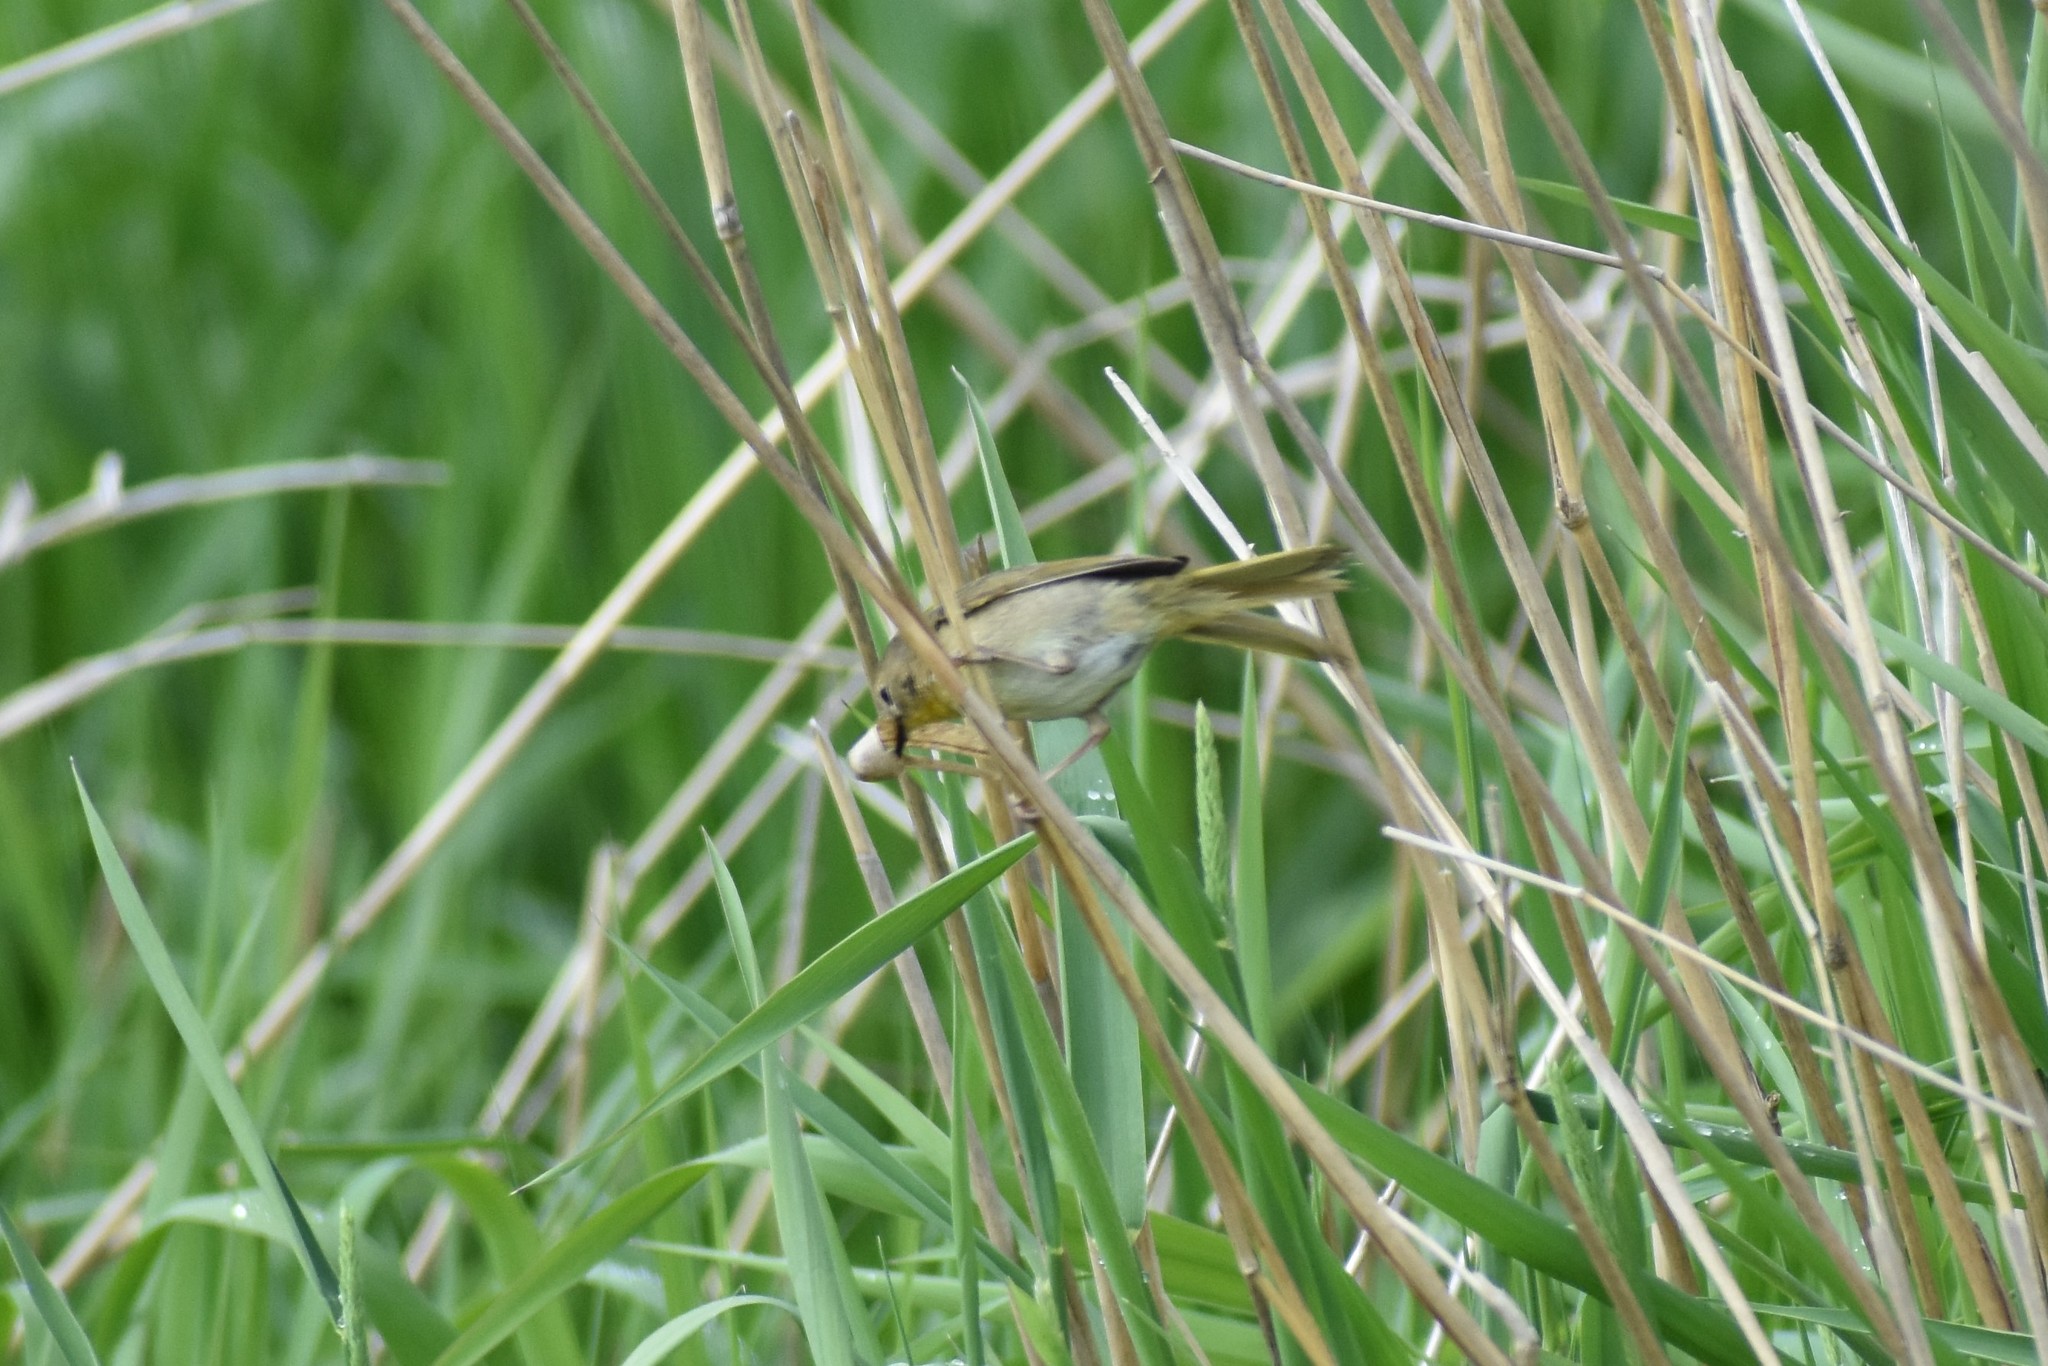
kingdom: Animalia
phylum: Chordata
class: Aves
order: Passeriformes
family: Parulidae
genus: Geothlypis
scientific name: Geothlypis trichas
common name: Common yellowthroat
